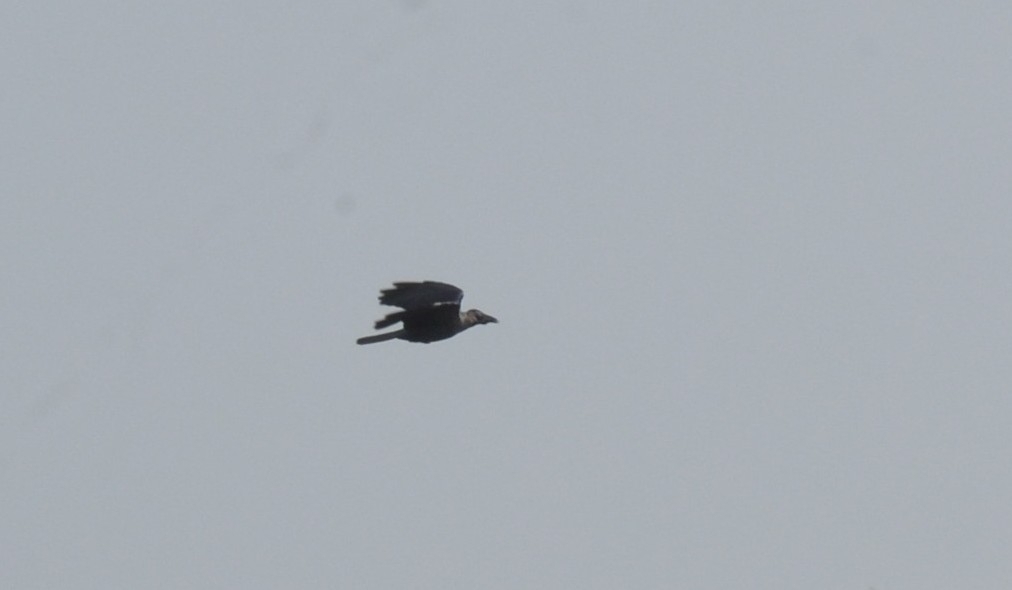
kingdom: Animalia
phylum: Chordata
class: Aves
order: Passeriformes
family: Corvidae
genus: Corvus
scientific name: Corvus splendens
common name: House crow
